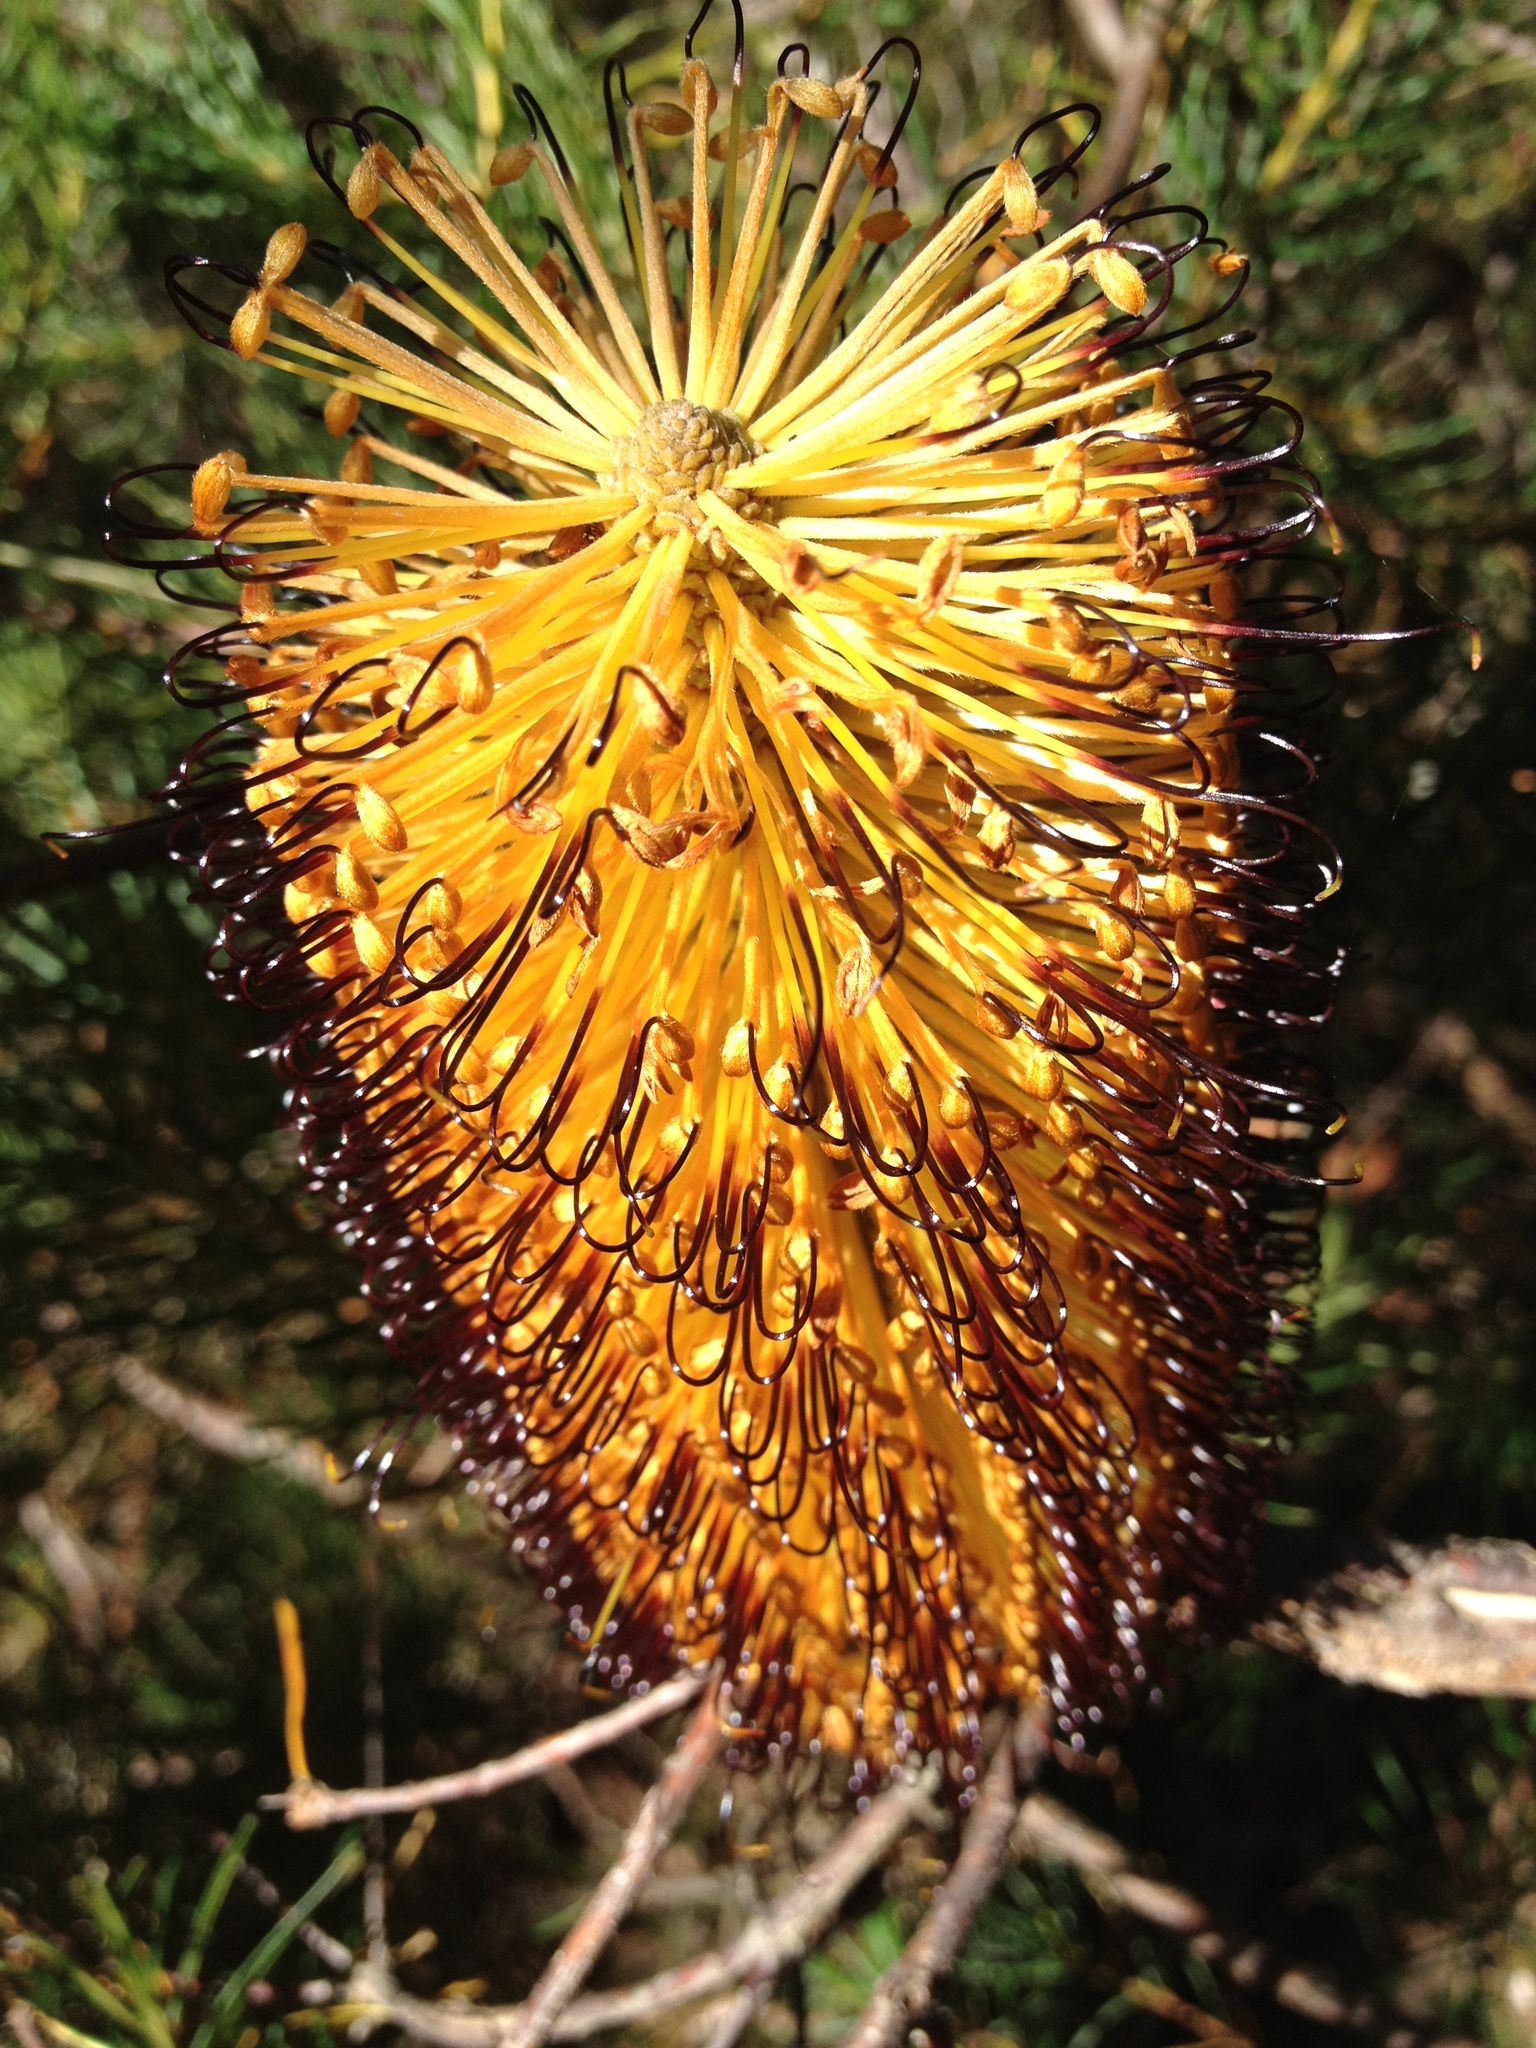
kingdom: Plantae
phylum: Tracheophyta
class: Magnoliopsida
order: Proteales
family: Proteaceae
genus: Banksia
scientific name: Banksia spinulosa
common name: Hairpin banksia
